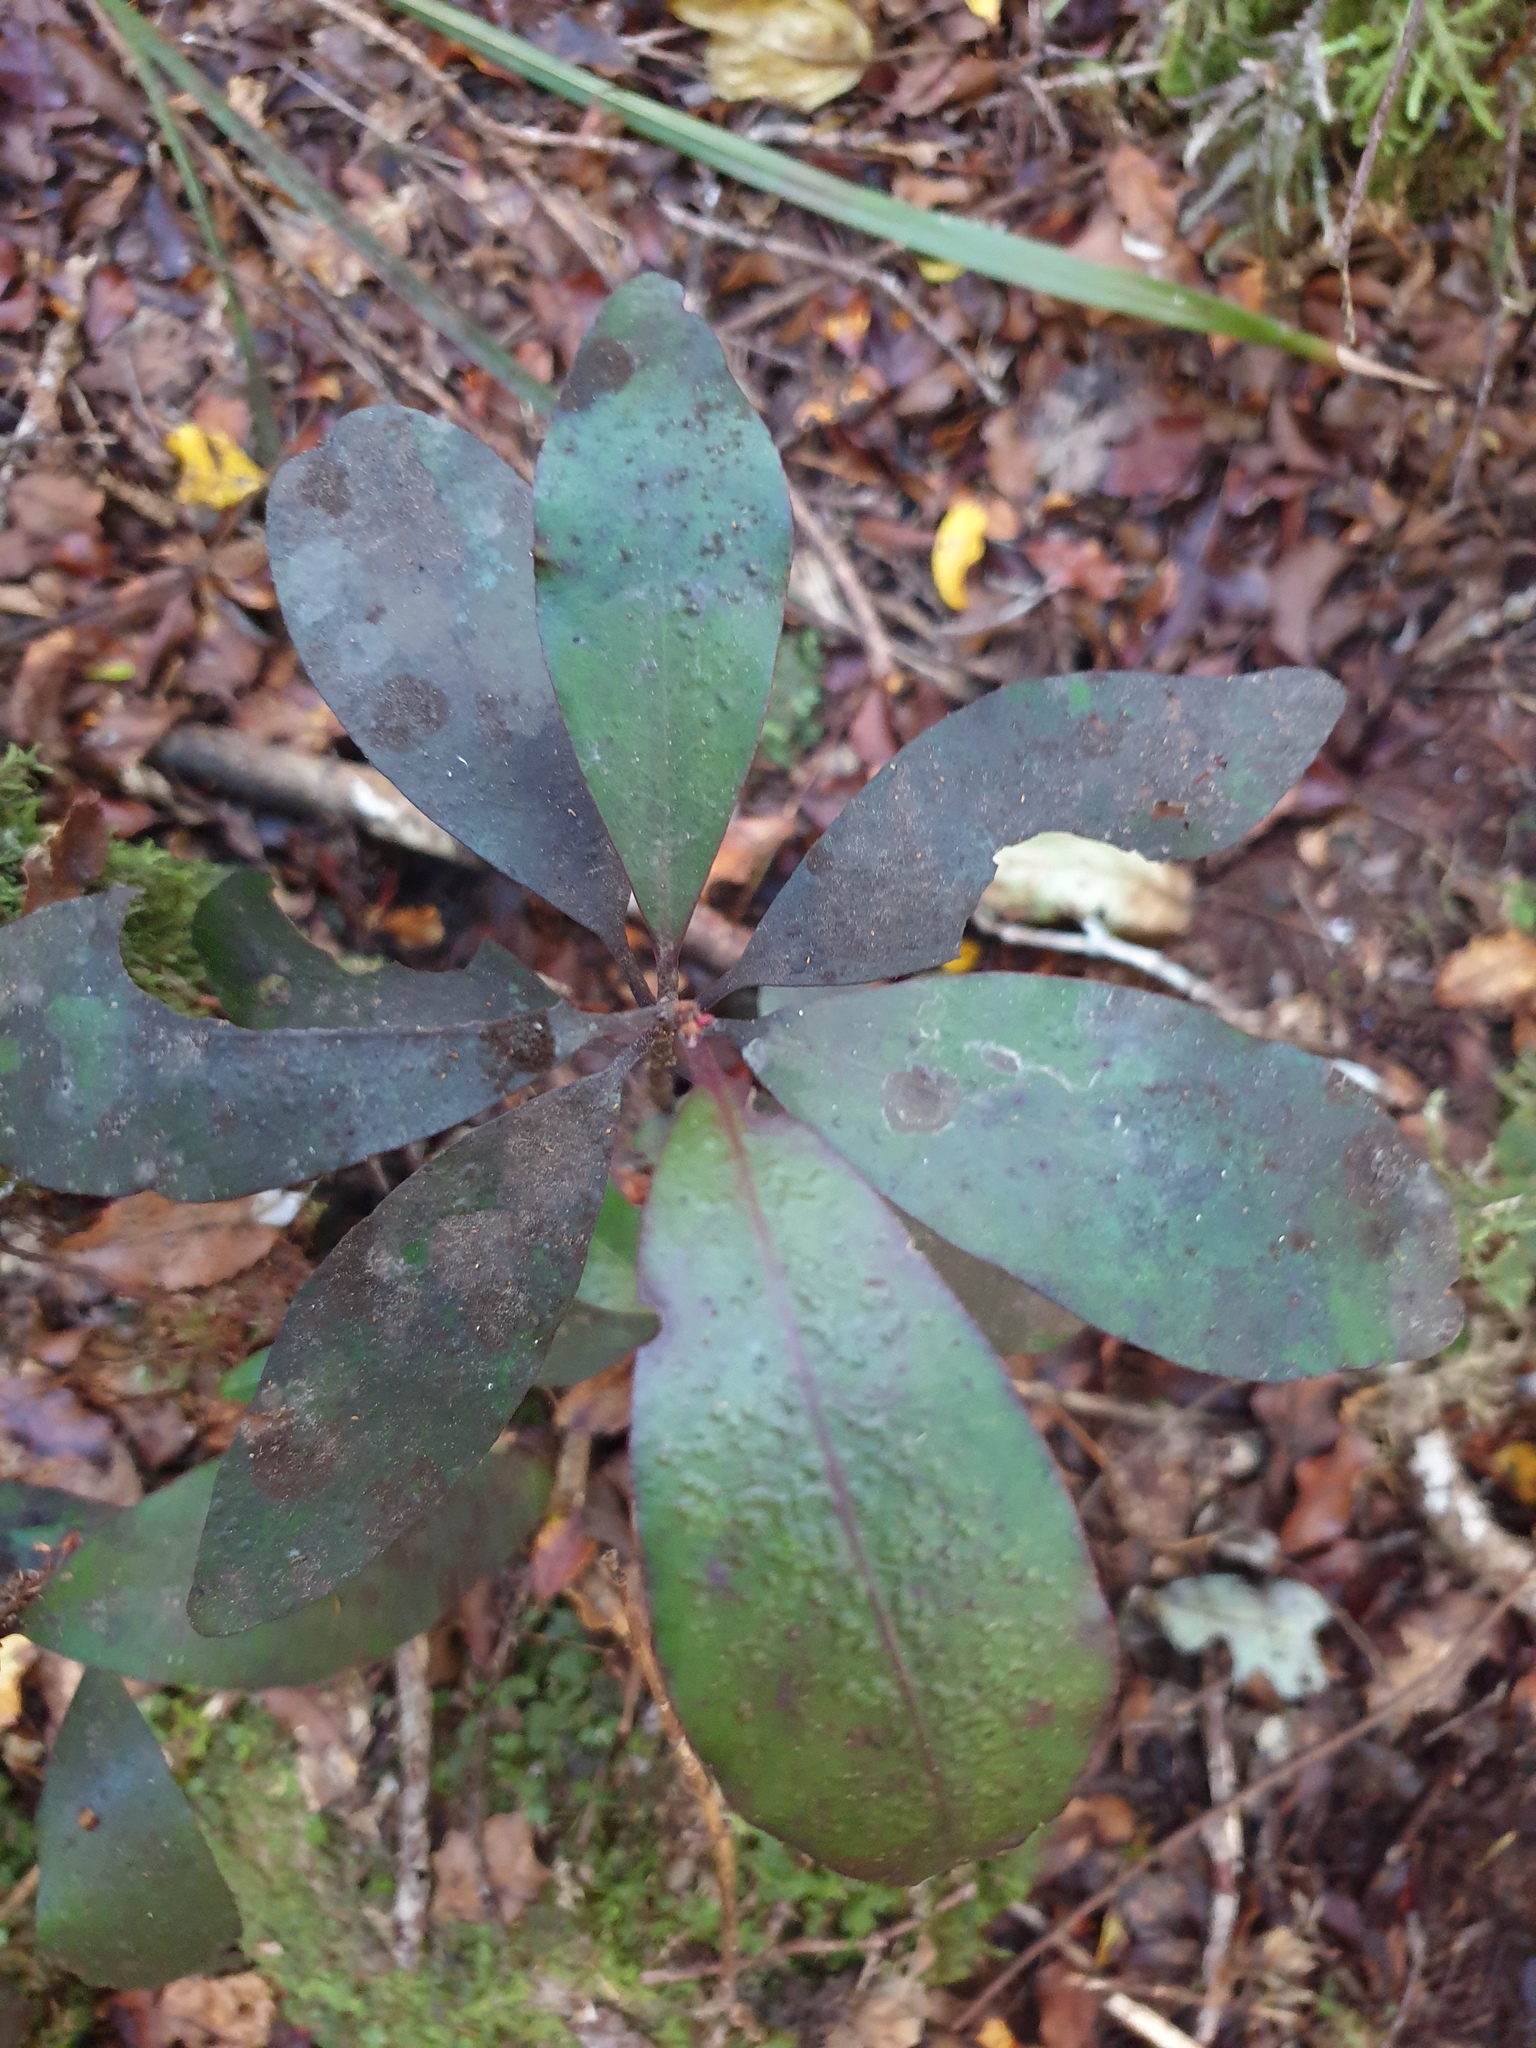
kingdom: Plantae
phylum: Tracheophyta
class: Magnoliopsida
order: Canellales
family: Winteraceae
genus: Pseudowintera
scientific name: Pseudowintera colorata
